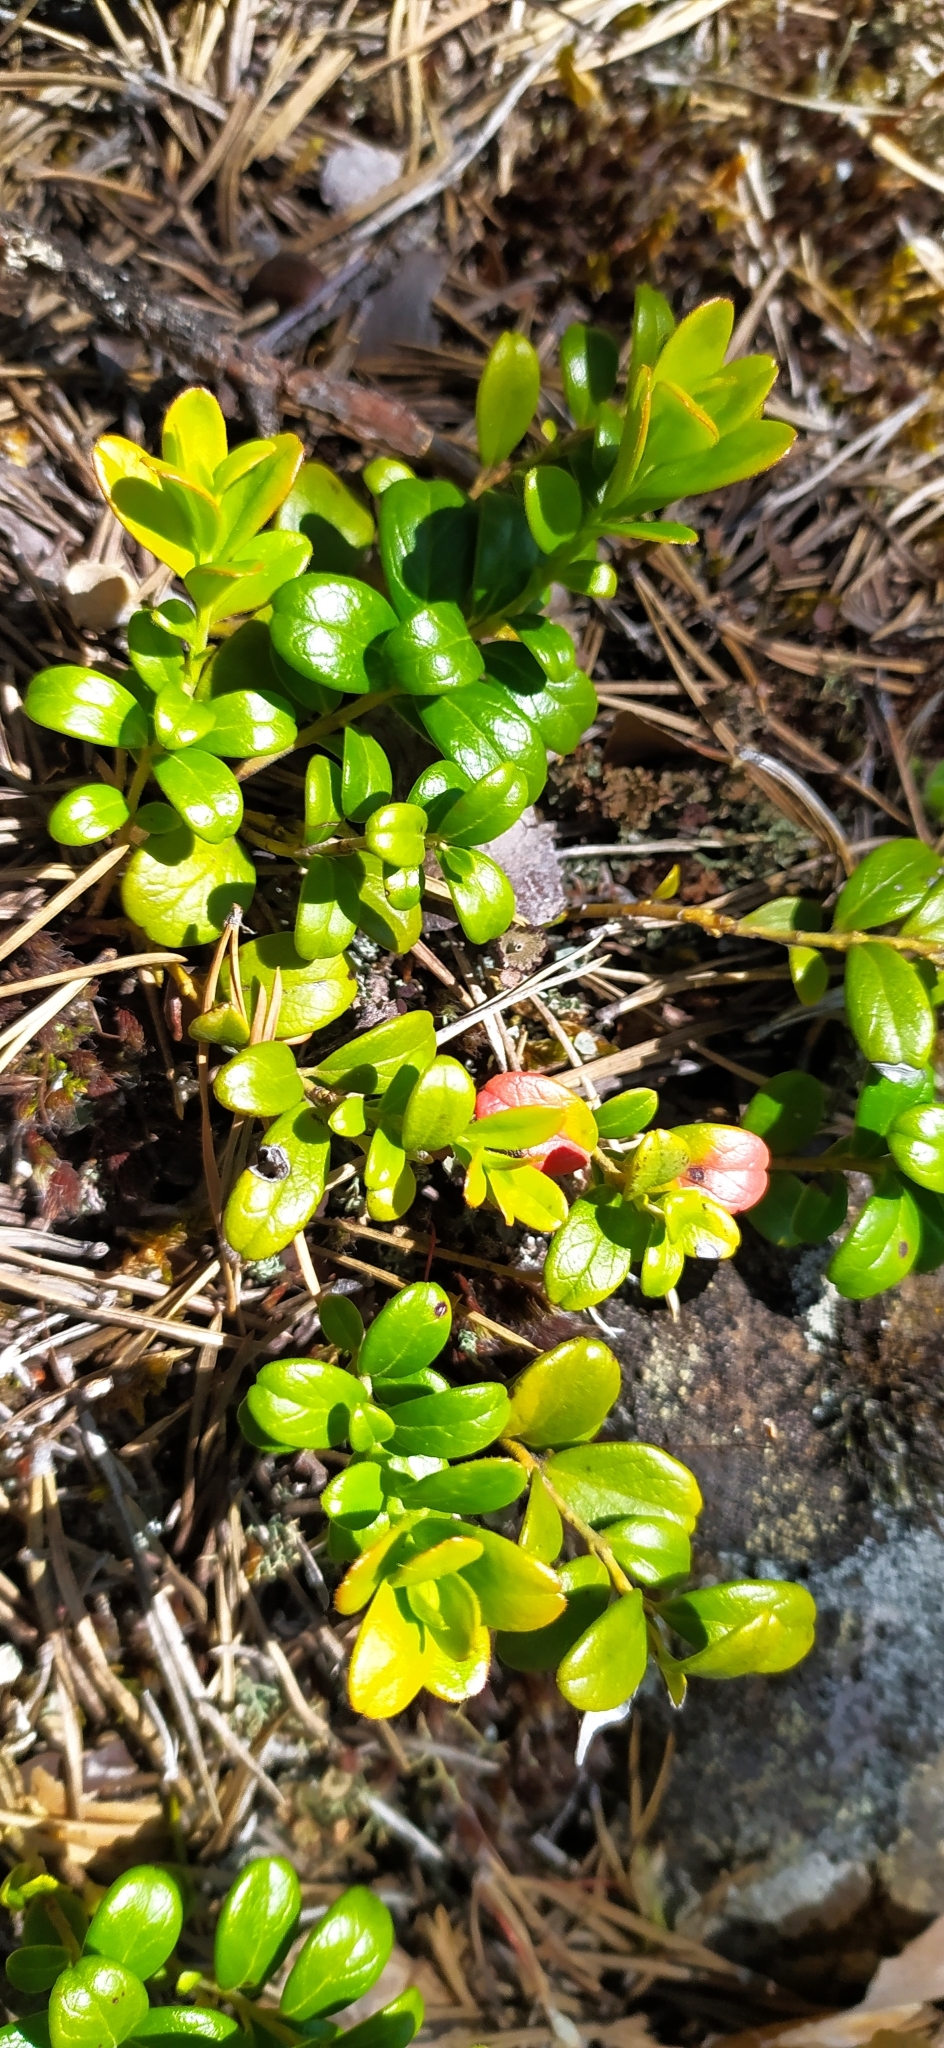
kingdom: Plantae
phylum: Tracheophyta
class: Magnoliopsida
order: Ericales
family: Ericaceae
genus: Vaccinium
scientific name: Vaccinium vitis-idaea
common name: Cowberry
